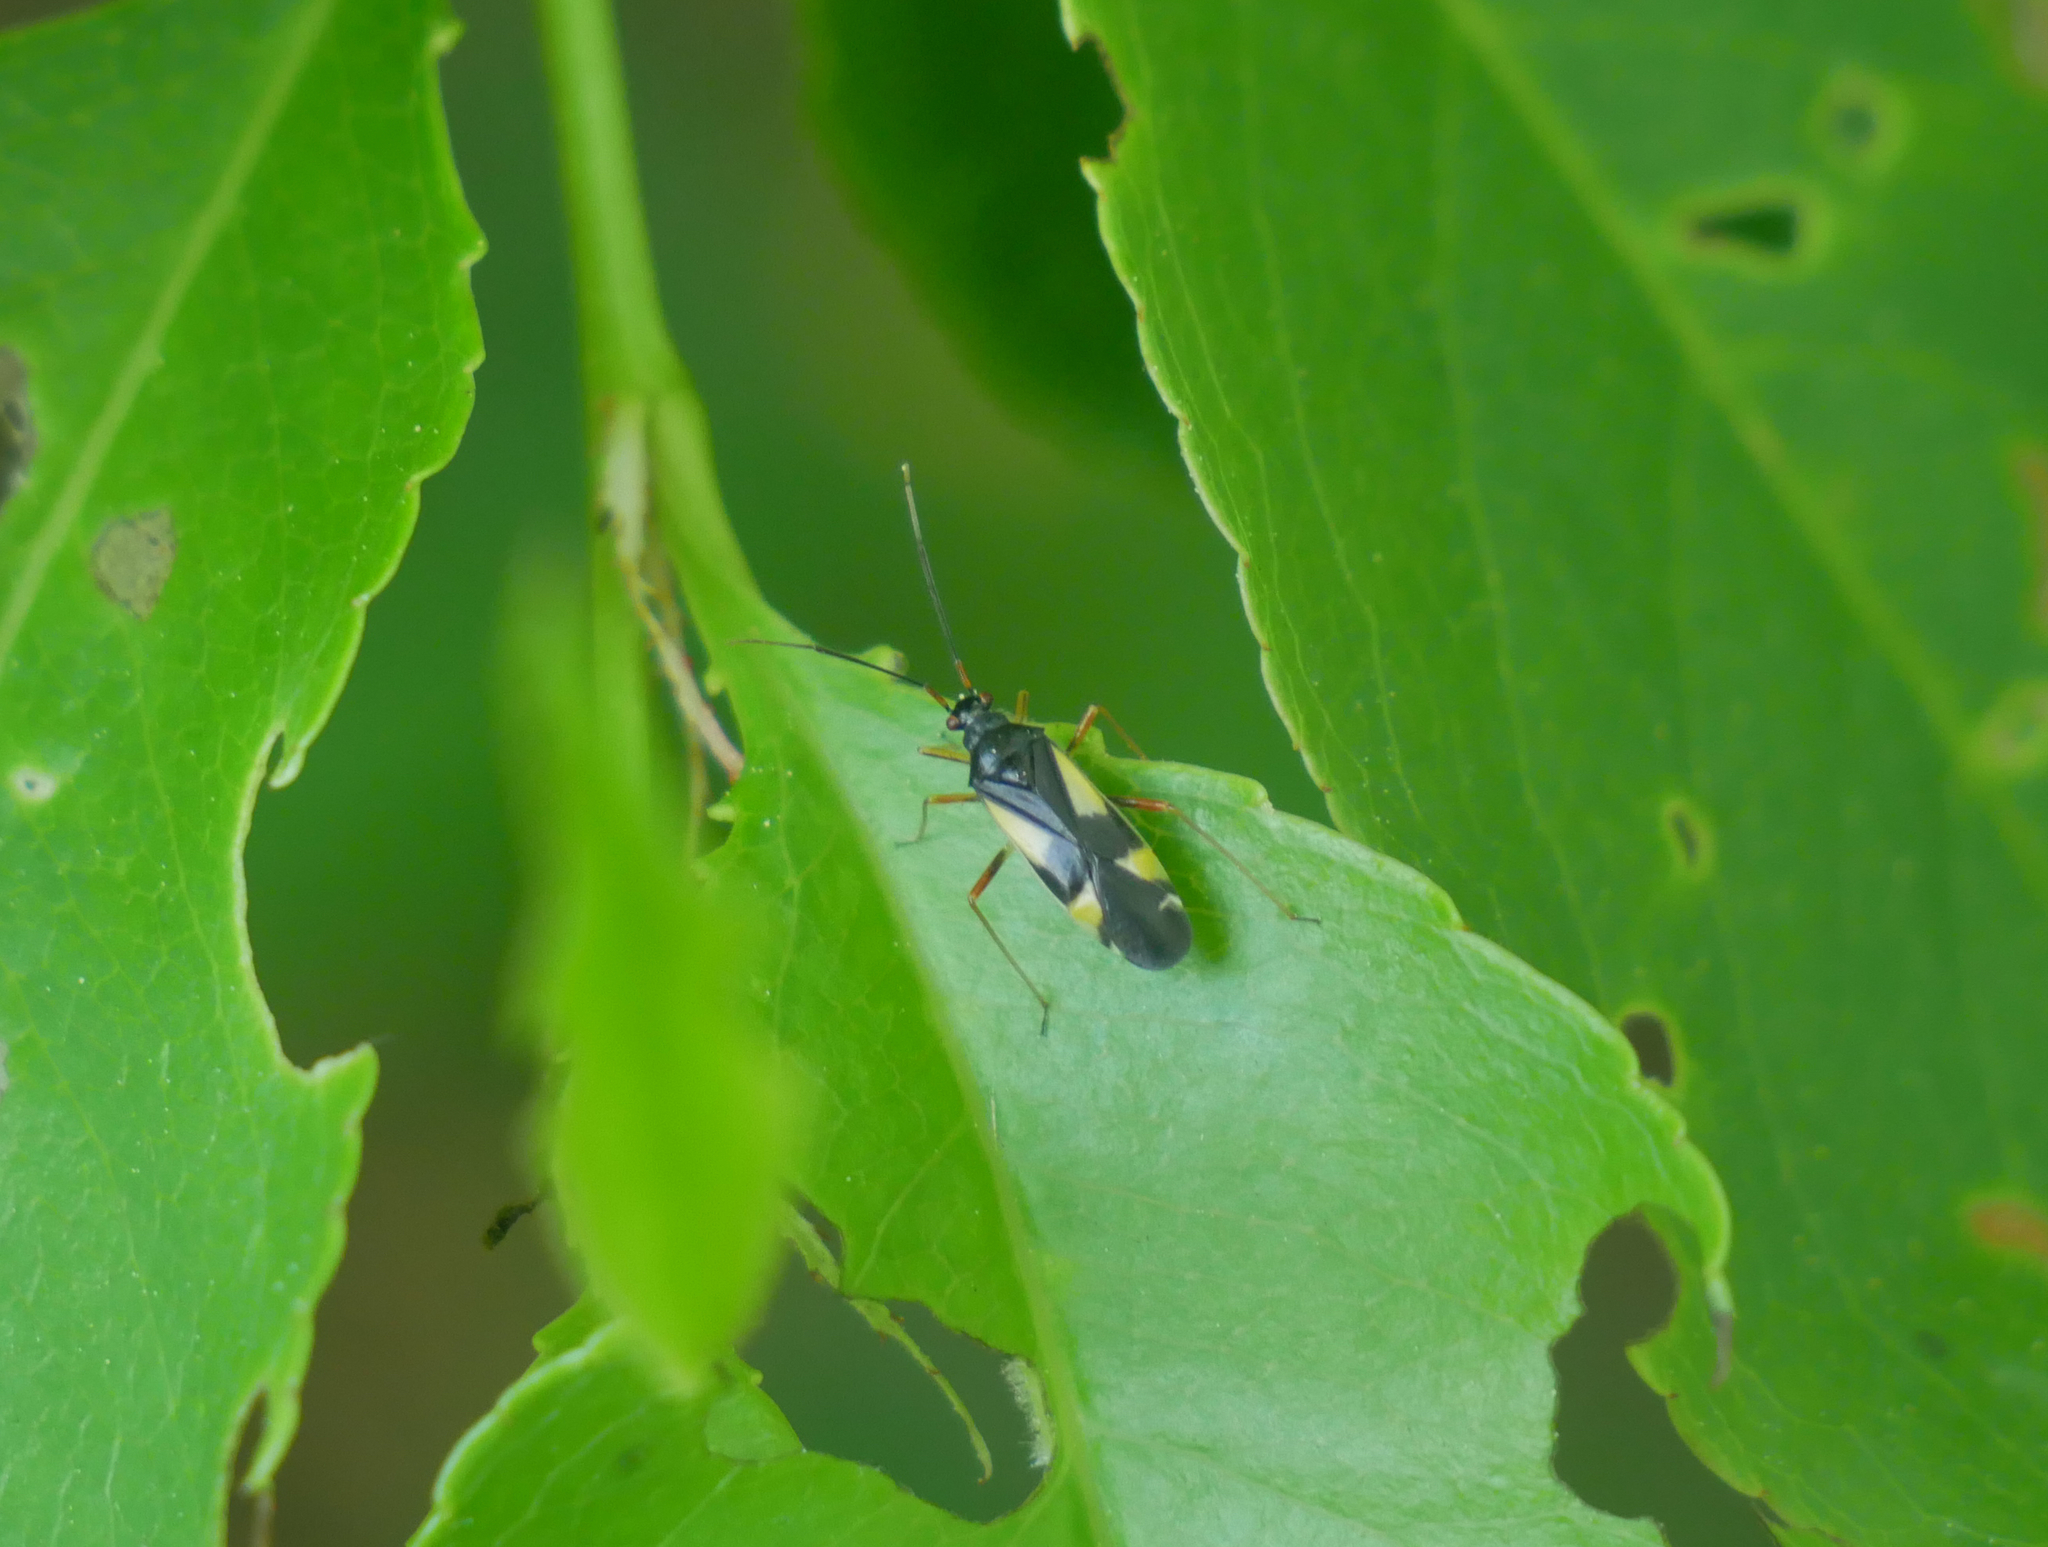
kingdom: Animalia
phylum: Arthropoda
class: Insecta
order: Hemiptera
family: Miridae
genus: Dryophilocoris
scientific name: Dryophilocoris flavoquadrimaculatus
